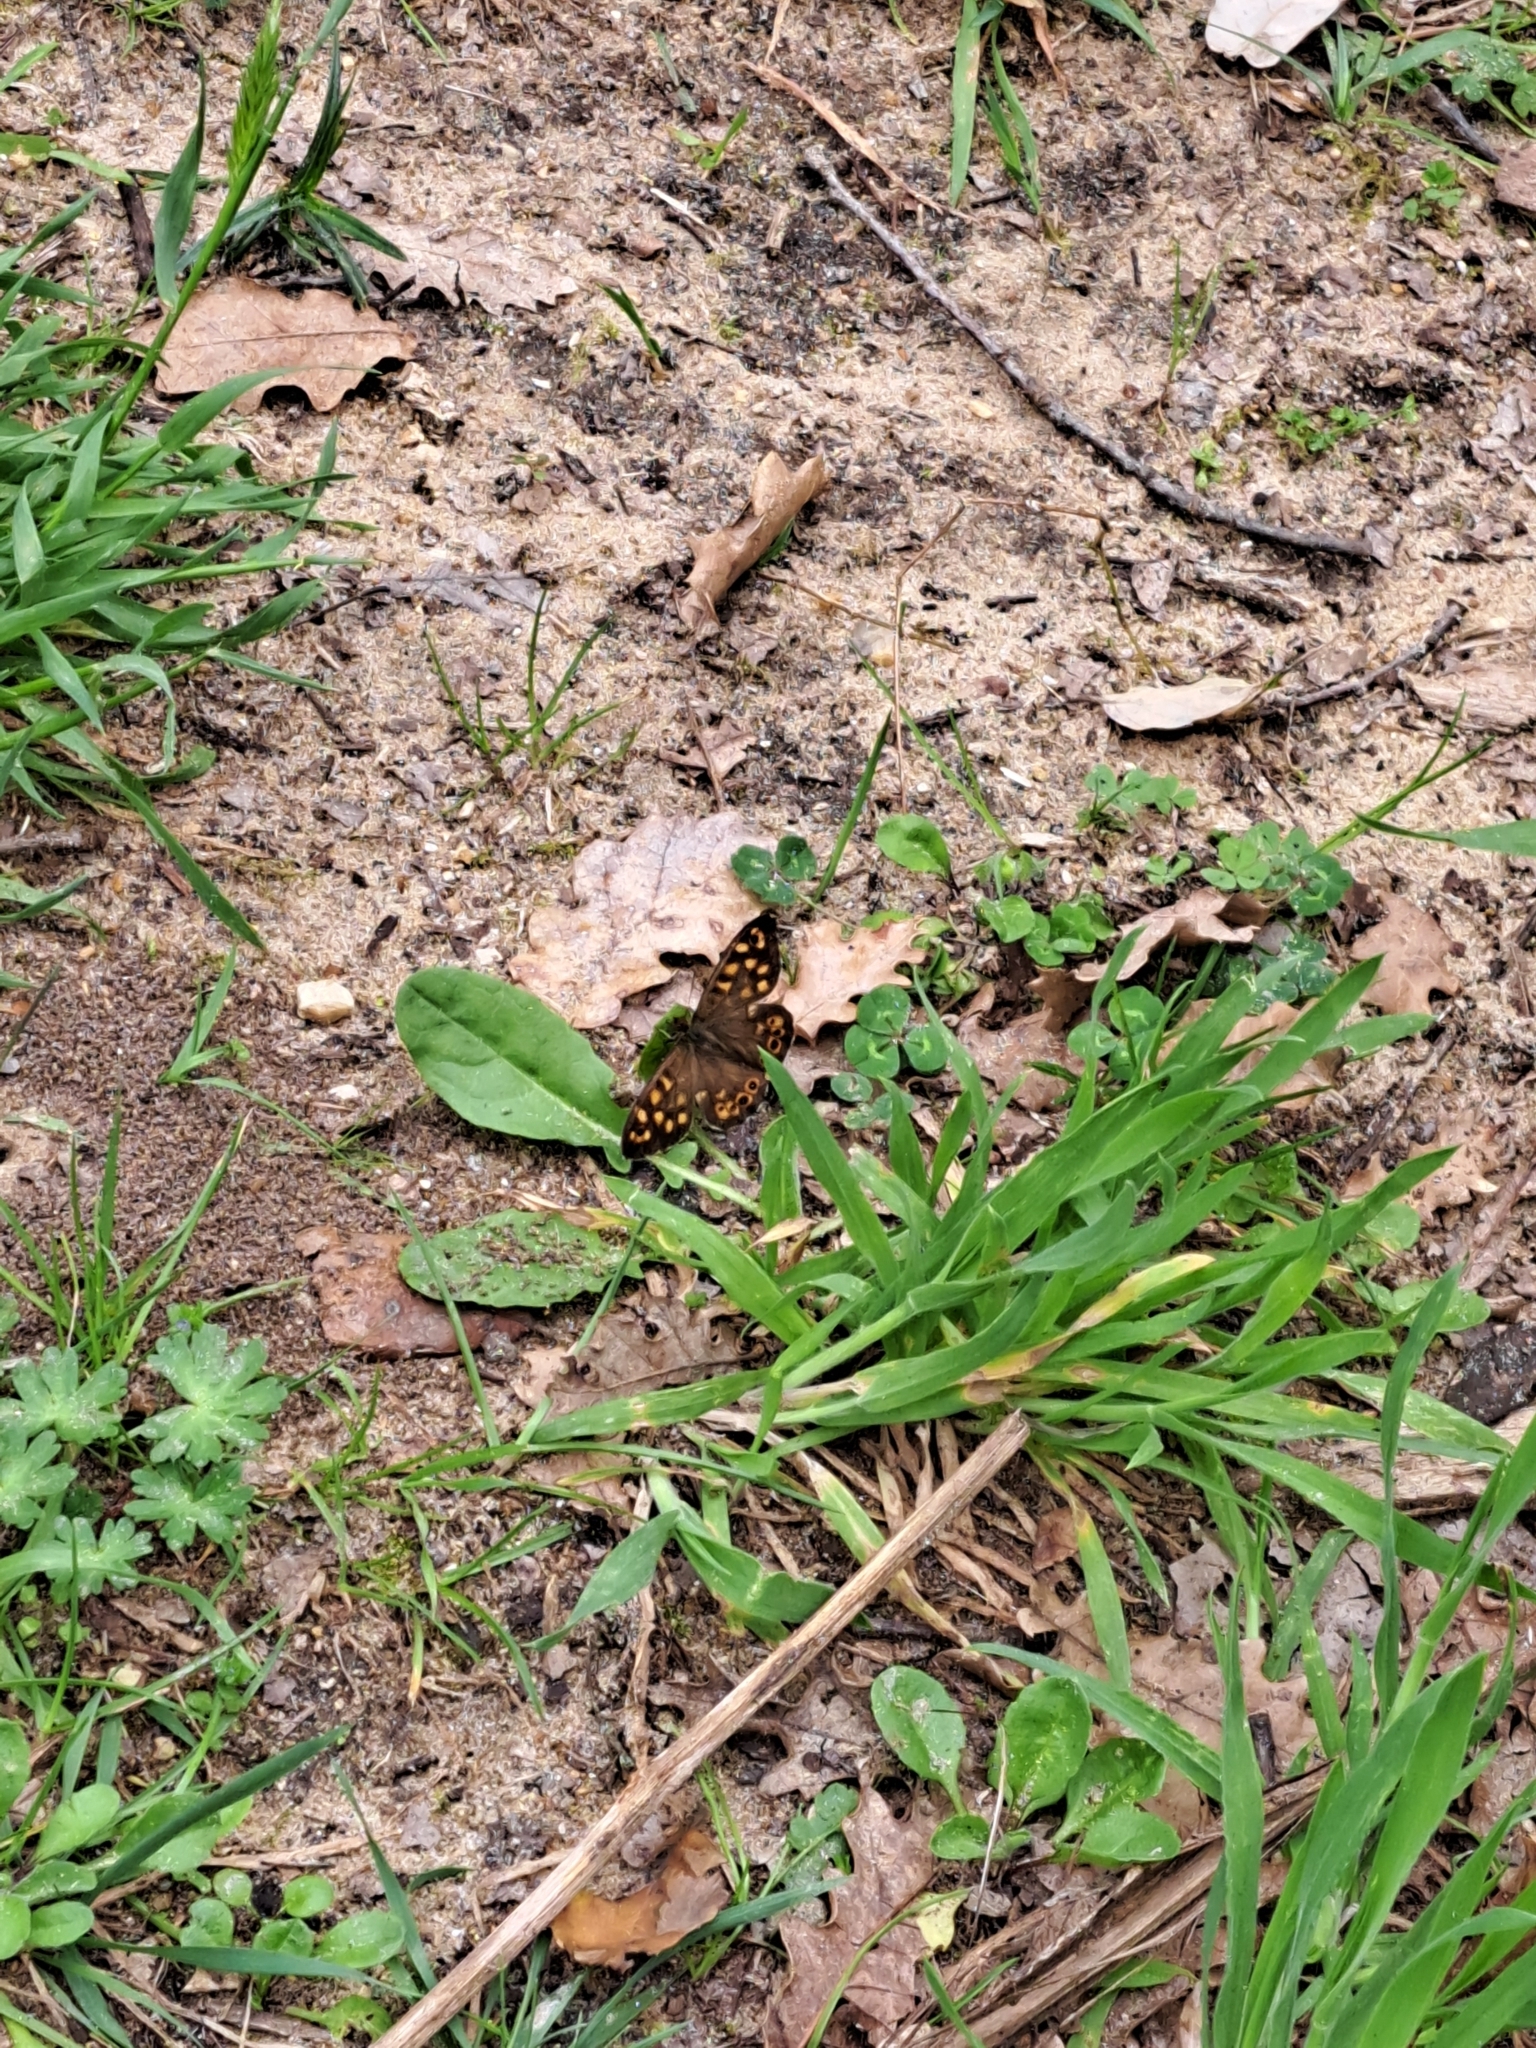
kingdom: Animalia
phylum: Arthropoda
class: Insecta
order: Lepidoptera
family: Nymphalidae
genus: Pararge
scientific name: Pararge aegeria
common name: Speckled wood
